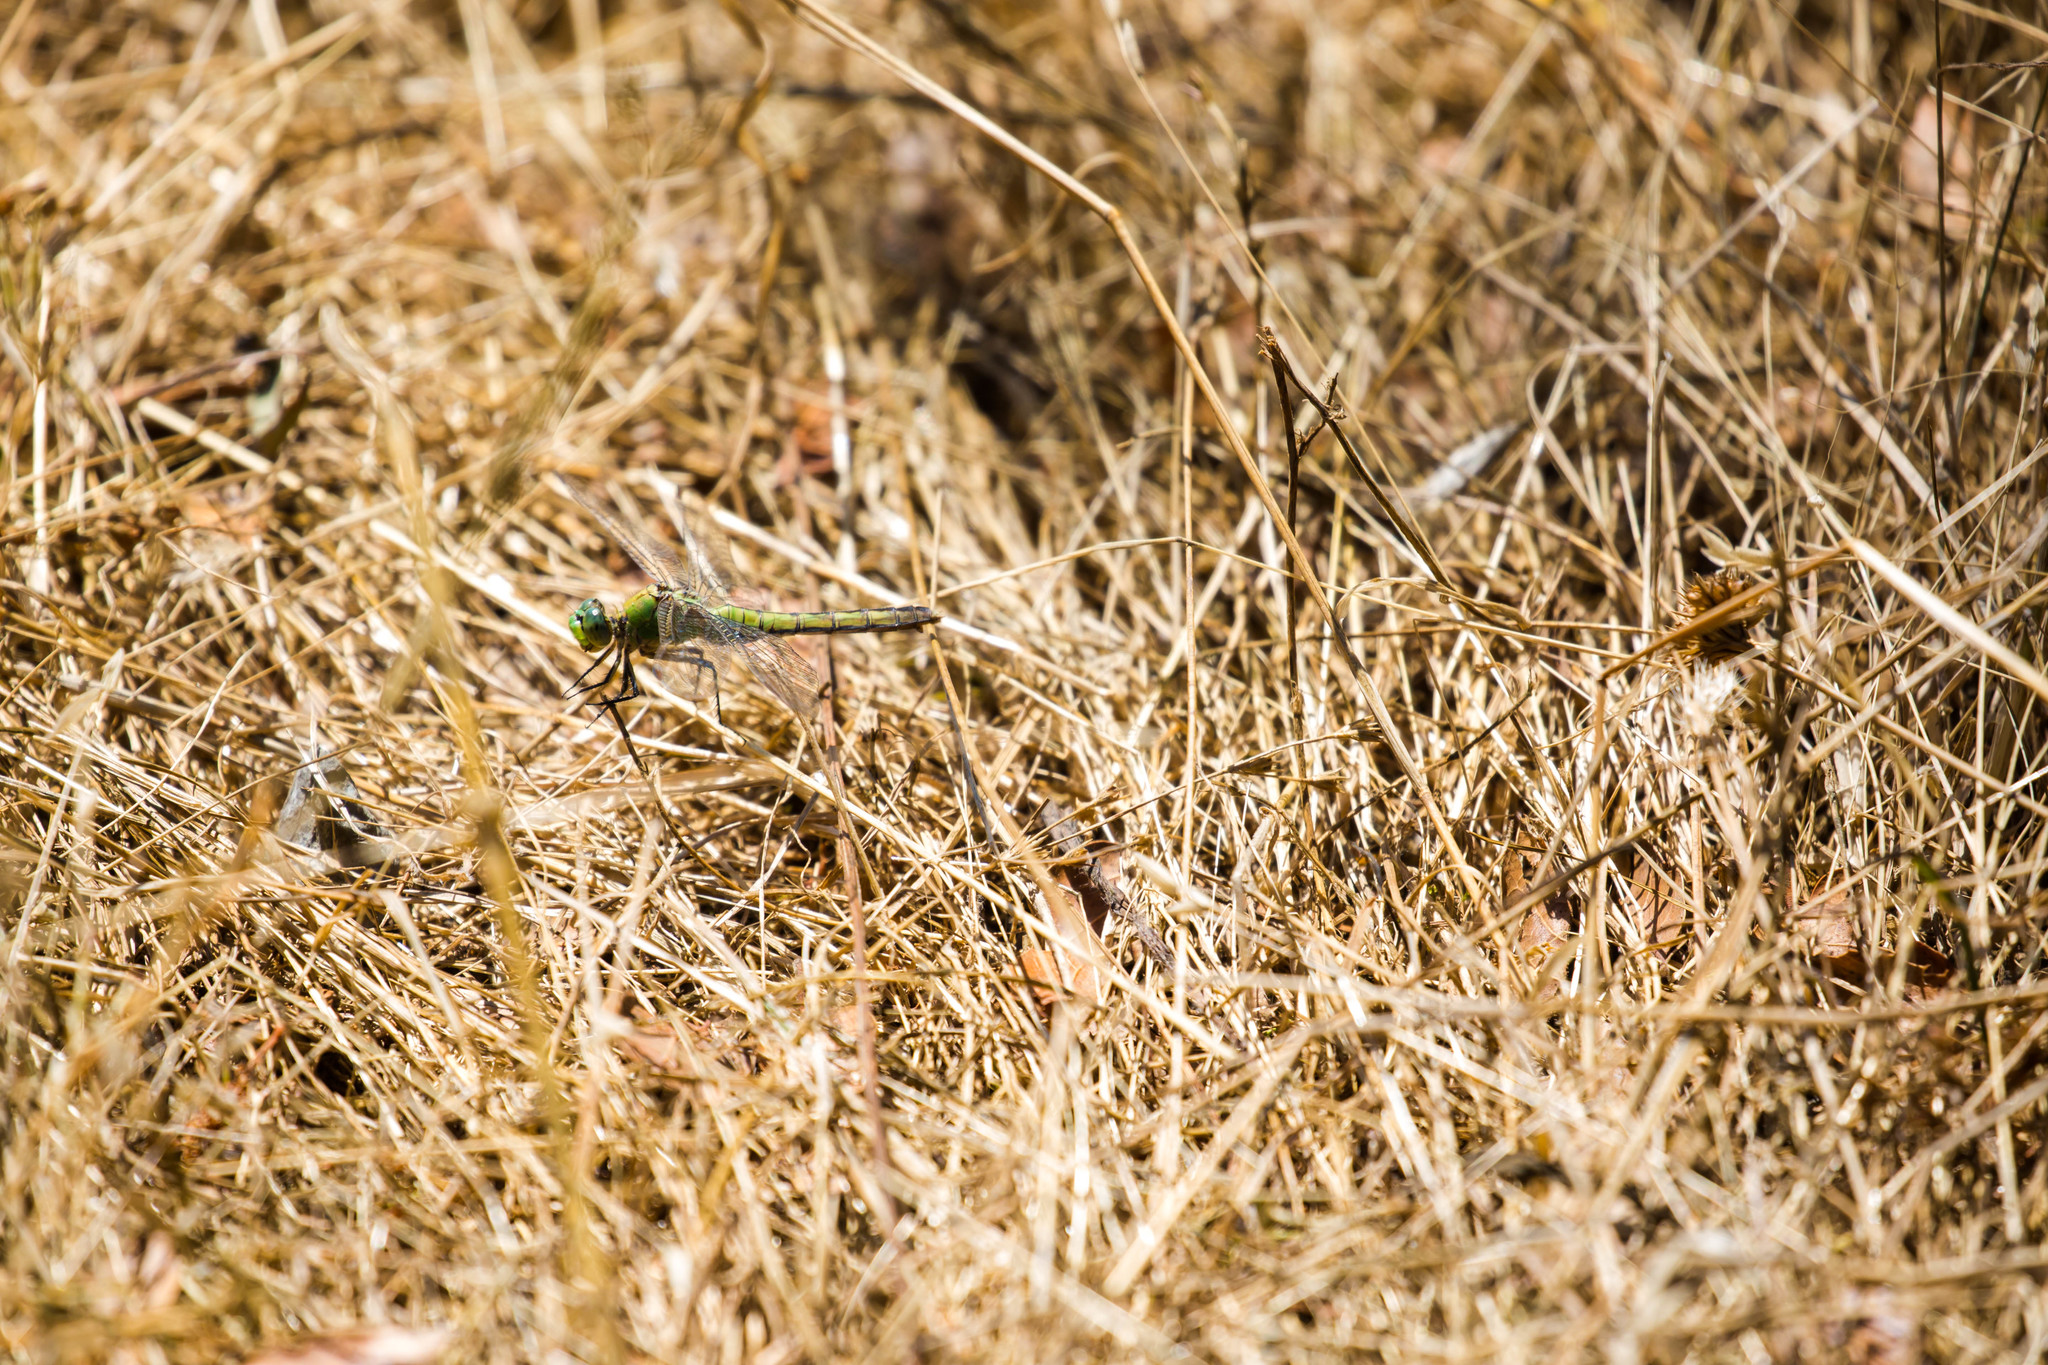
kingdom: Animalia
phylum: Arthropoda
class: Insecta
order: Odonata
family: Libellulidae
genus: Erythemis
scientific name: Erythemis collocata
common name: Western pondhawk
